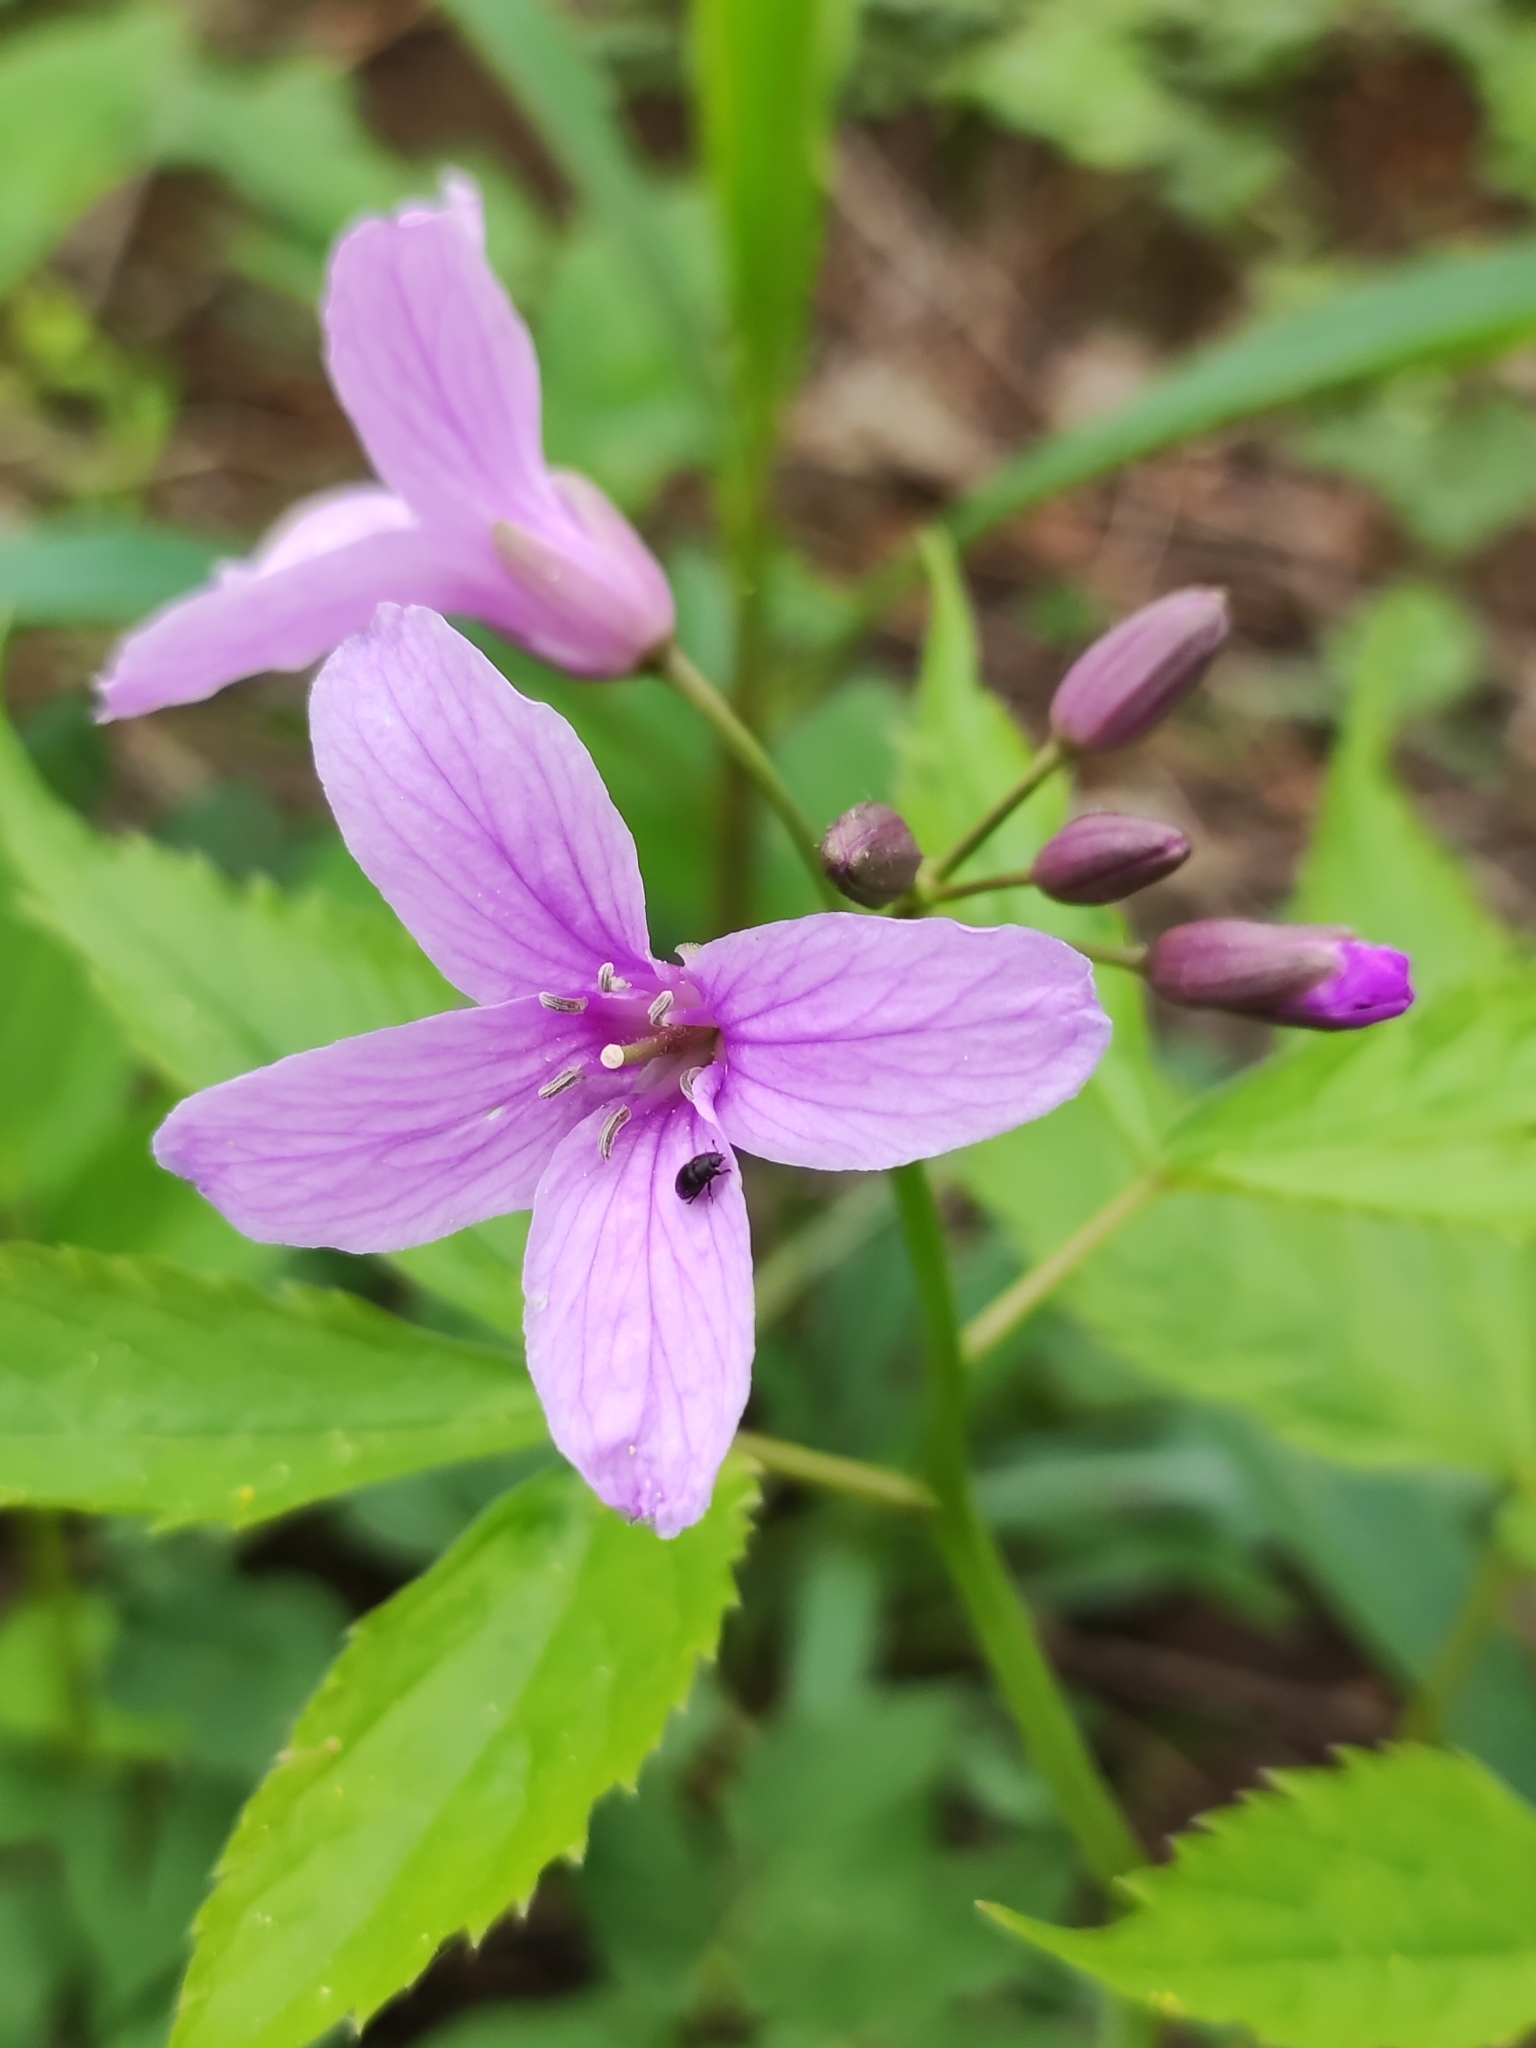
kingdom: Plantae
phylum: Tracheophyta
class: Magnoliopsida
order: Brassicales
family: Brassicaceae
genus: Cardamine
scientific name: Cardamine pentaphyllos
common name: Five-leaflet bitter-cress
